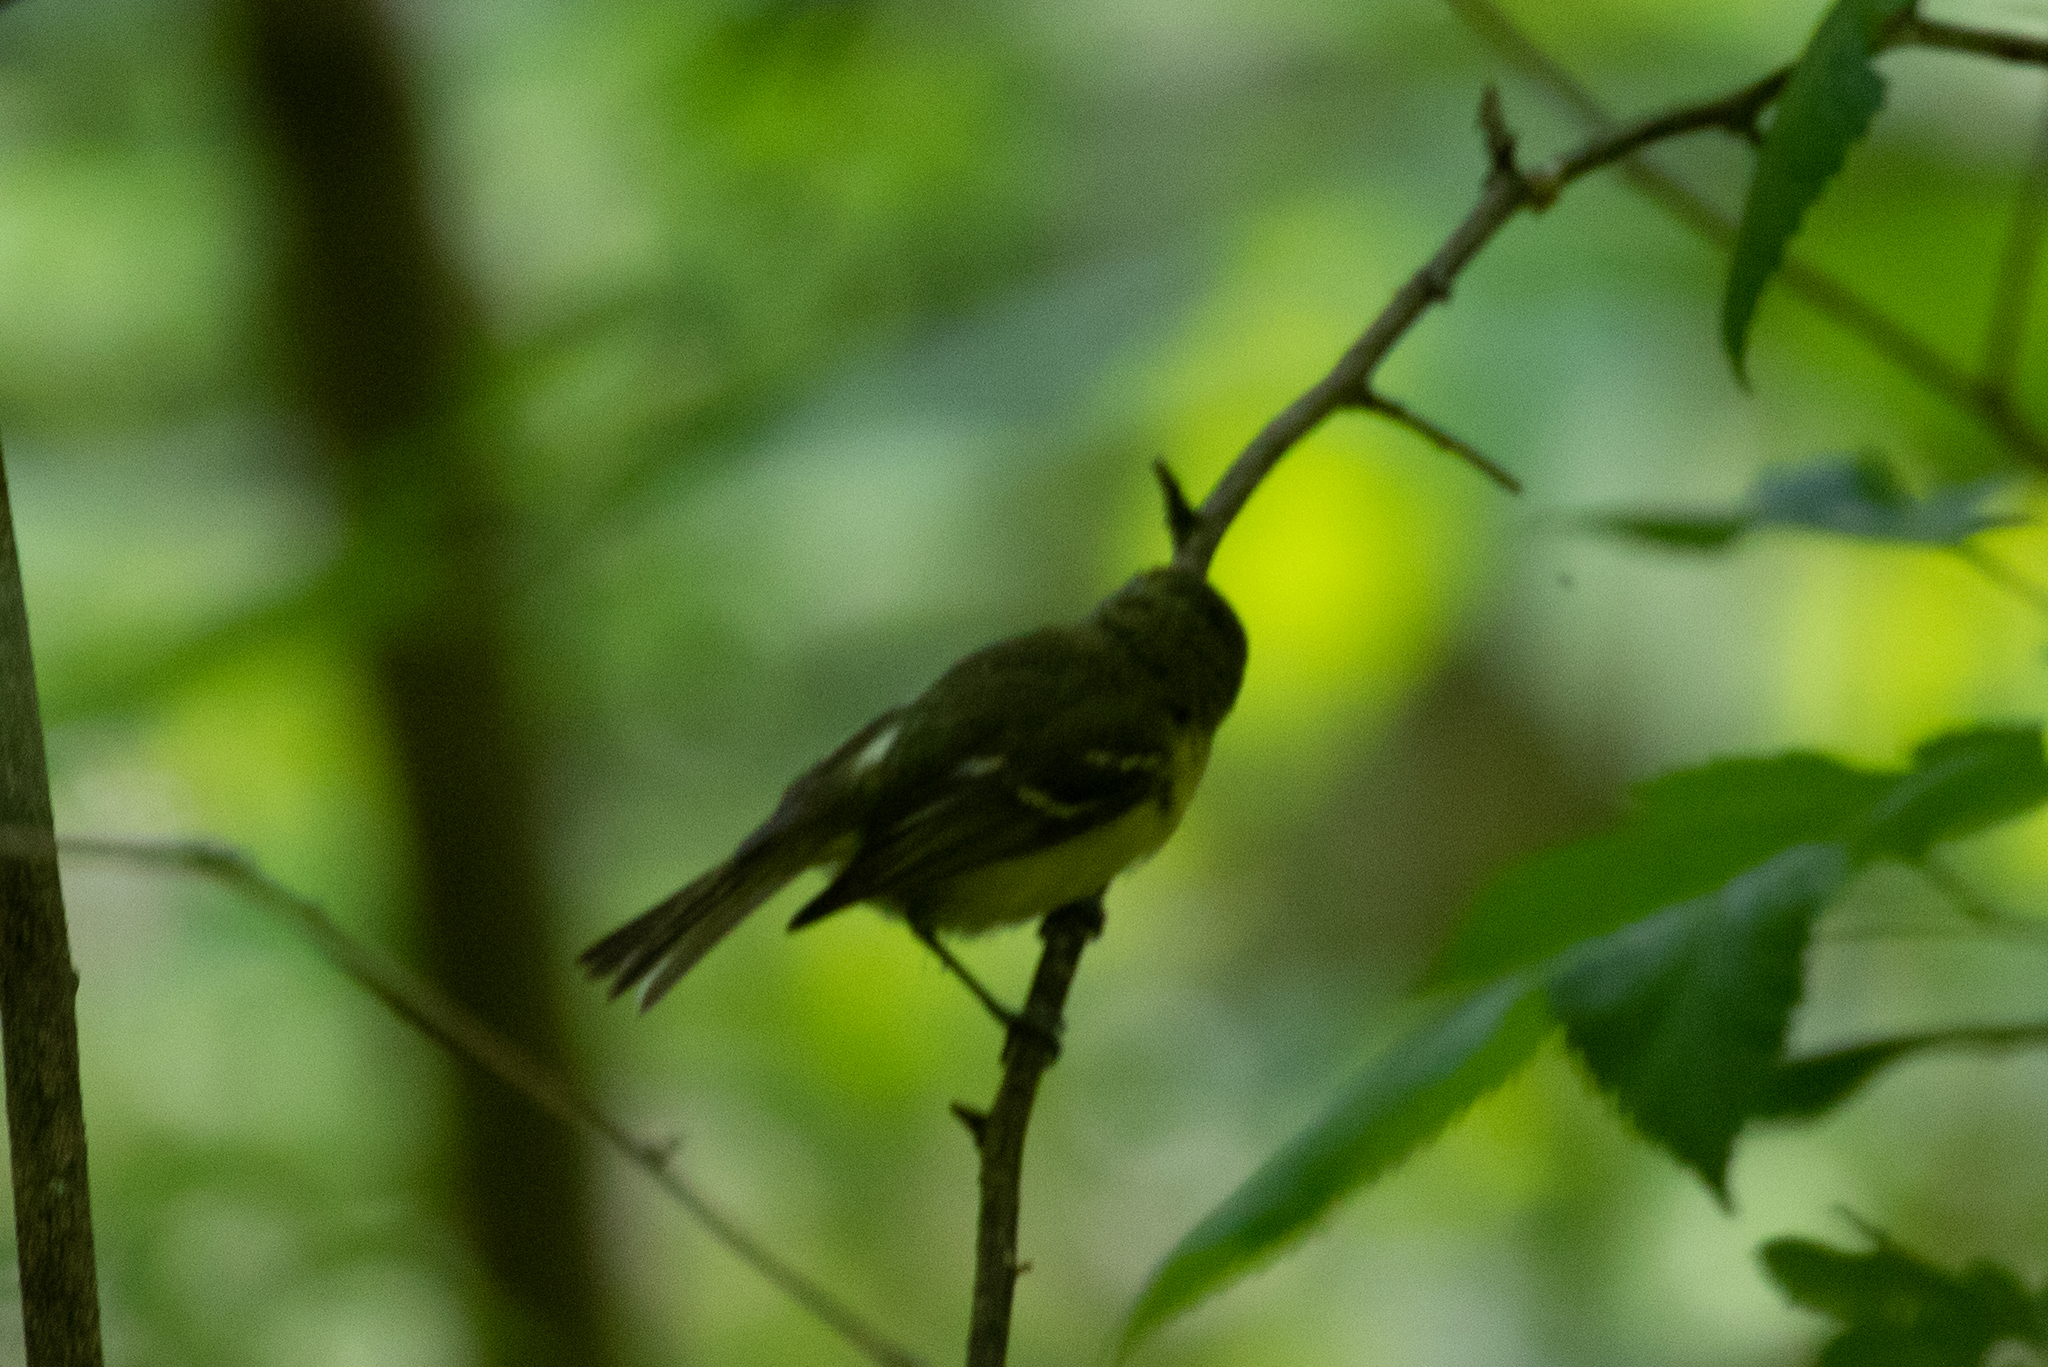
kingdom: Animalia
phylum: Chordata
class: Aves
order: Passeriformes
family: Vireonidae
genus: Vireo
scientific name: Vireo griseus
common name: White-eyed vireo
